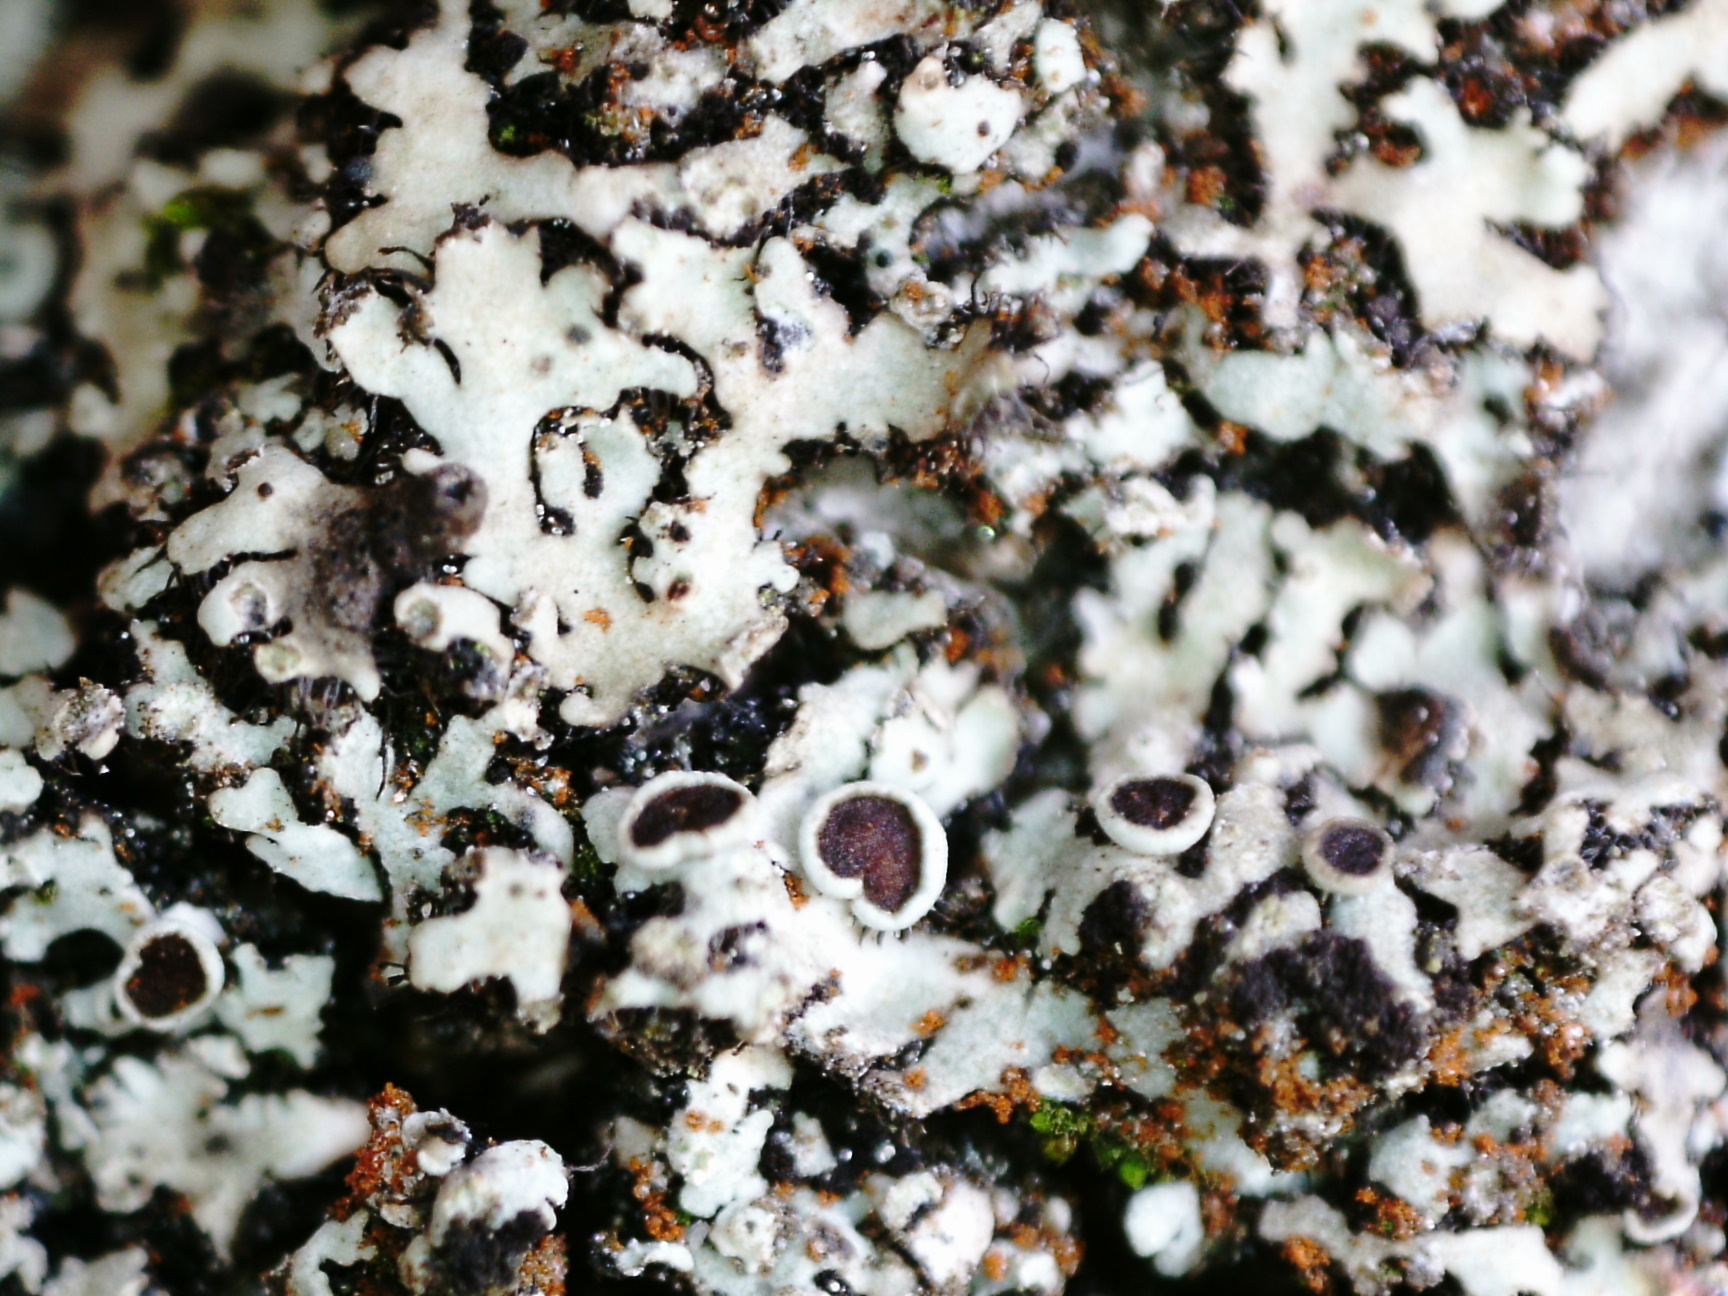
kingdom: Fungi
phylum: Ascomycota
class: Lecanoromycetes
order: Caliciales
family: Physciaceae
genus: Phaeophyscia
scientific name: Phaeophyscia ciliata
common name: Smooth shadow lichen
